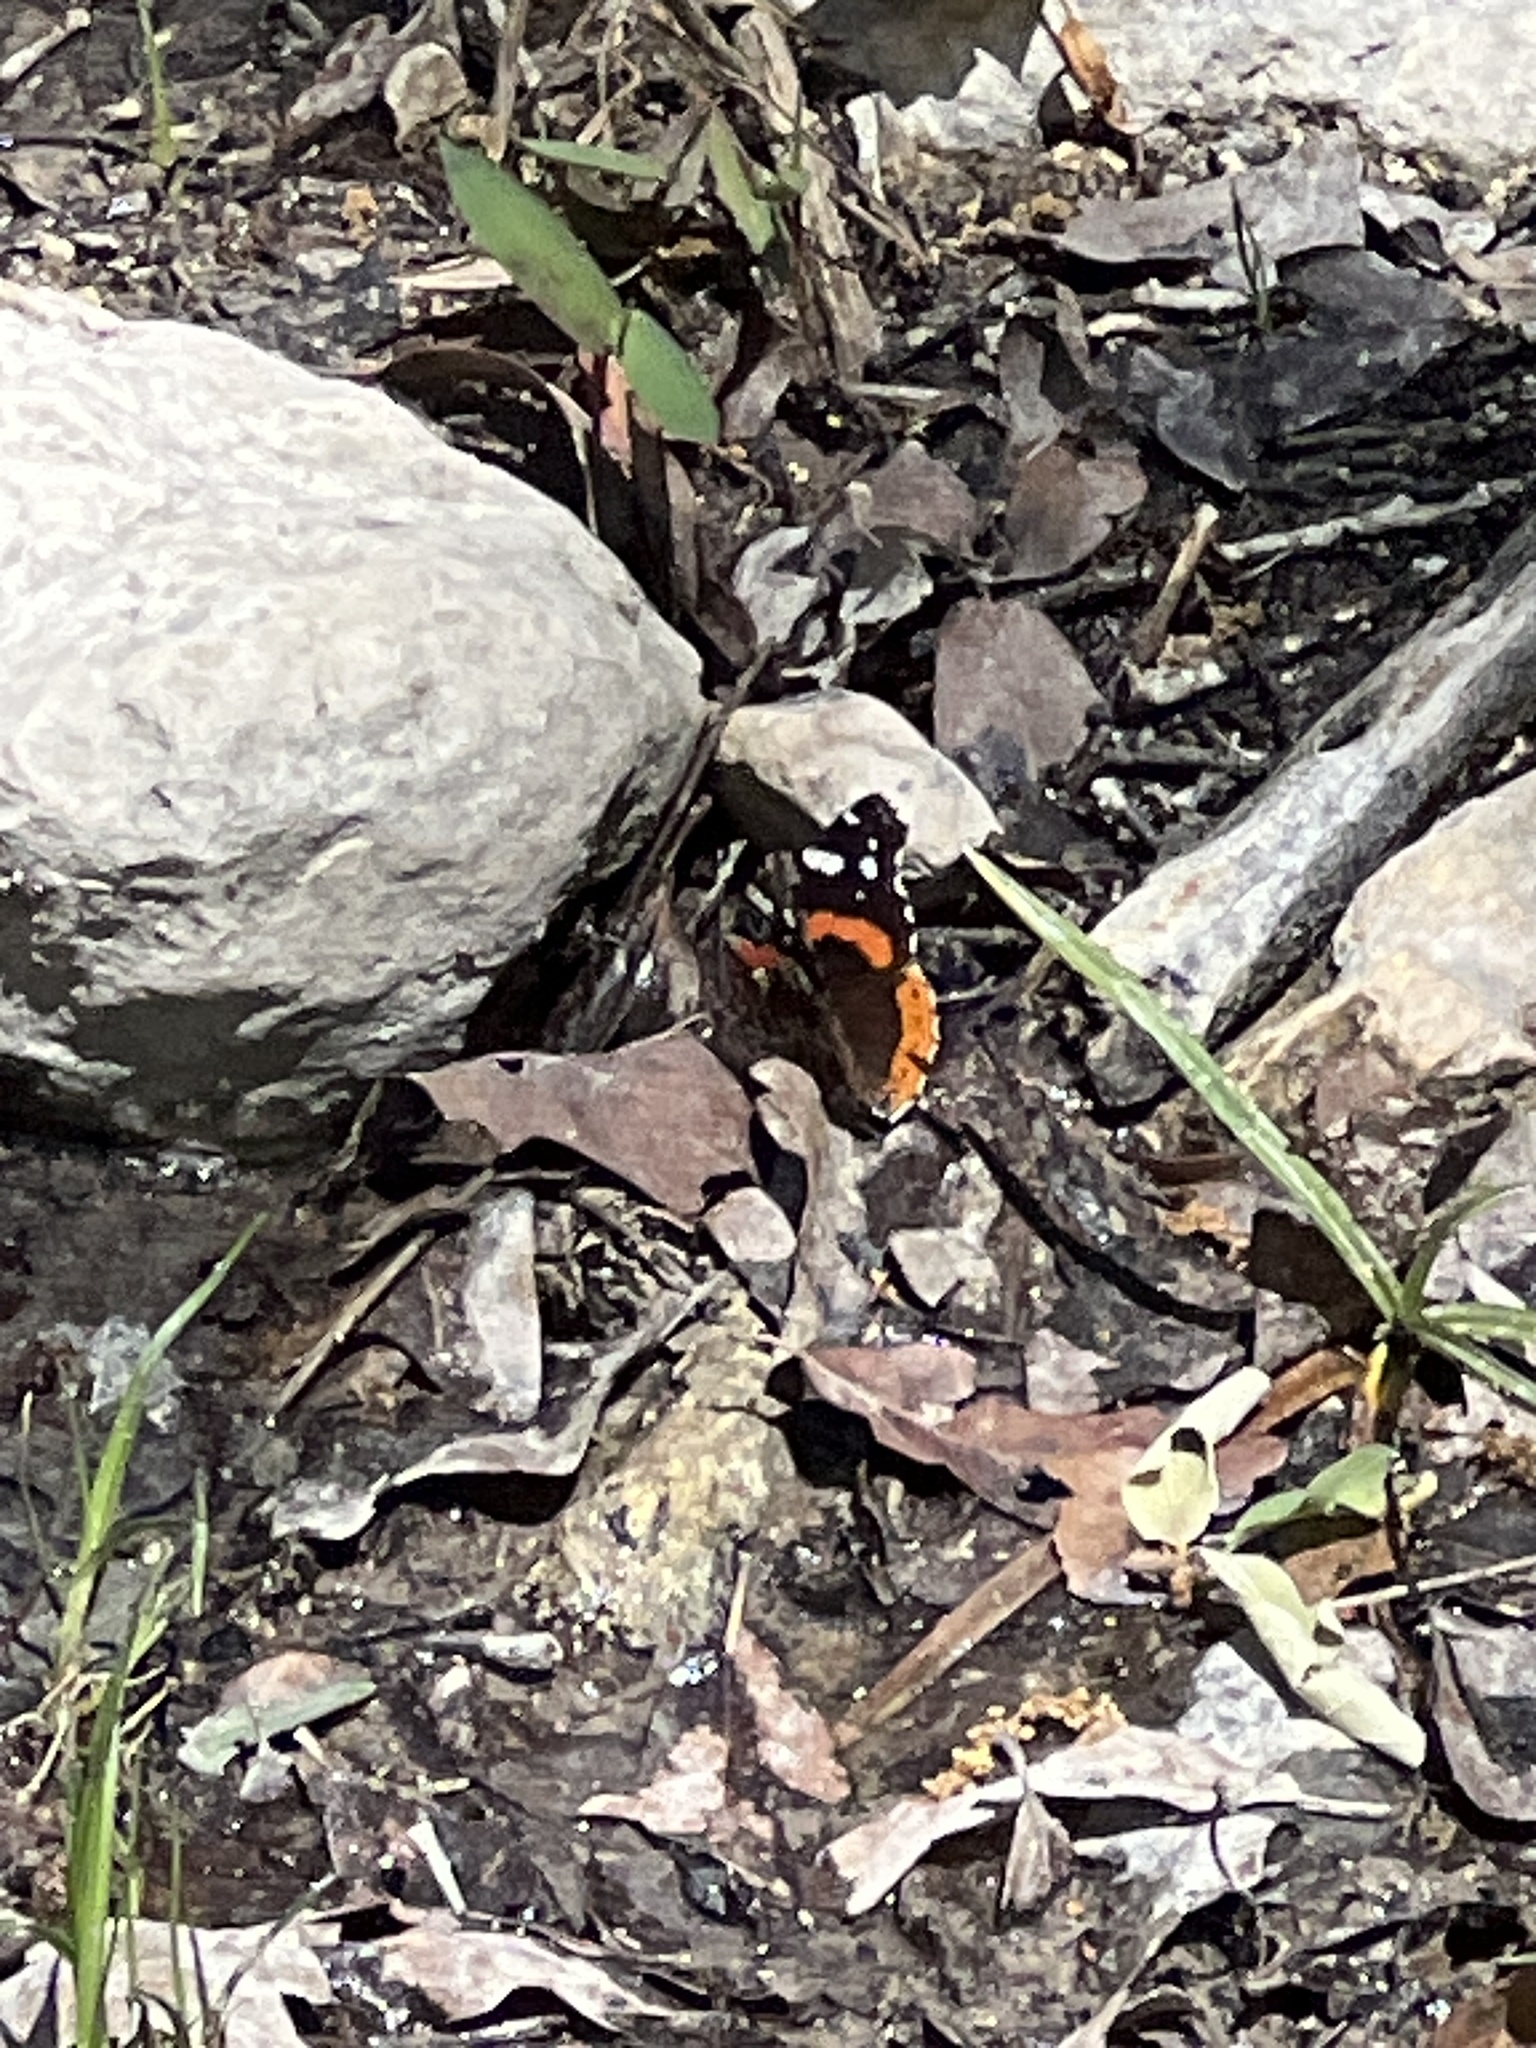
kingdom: Animalia
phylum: Arthropoda
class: Insecta
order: Lepidoptera
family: Nymphalidae
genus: Vanessa
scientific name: Vanessa atalanta
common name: Red admiral
